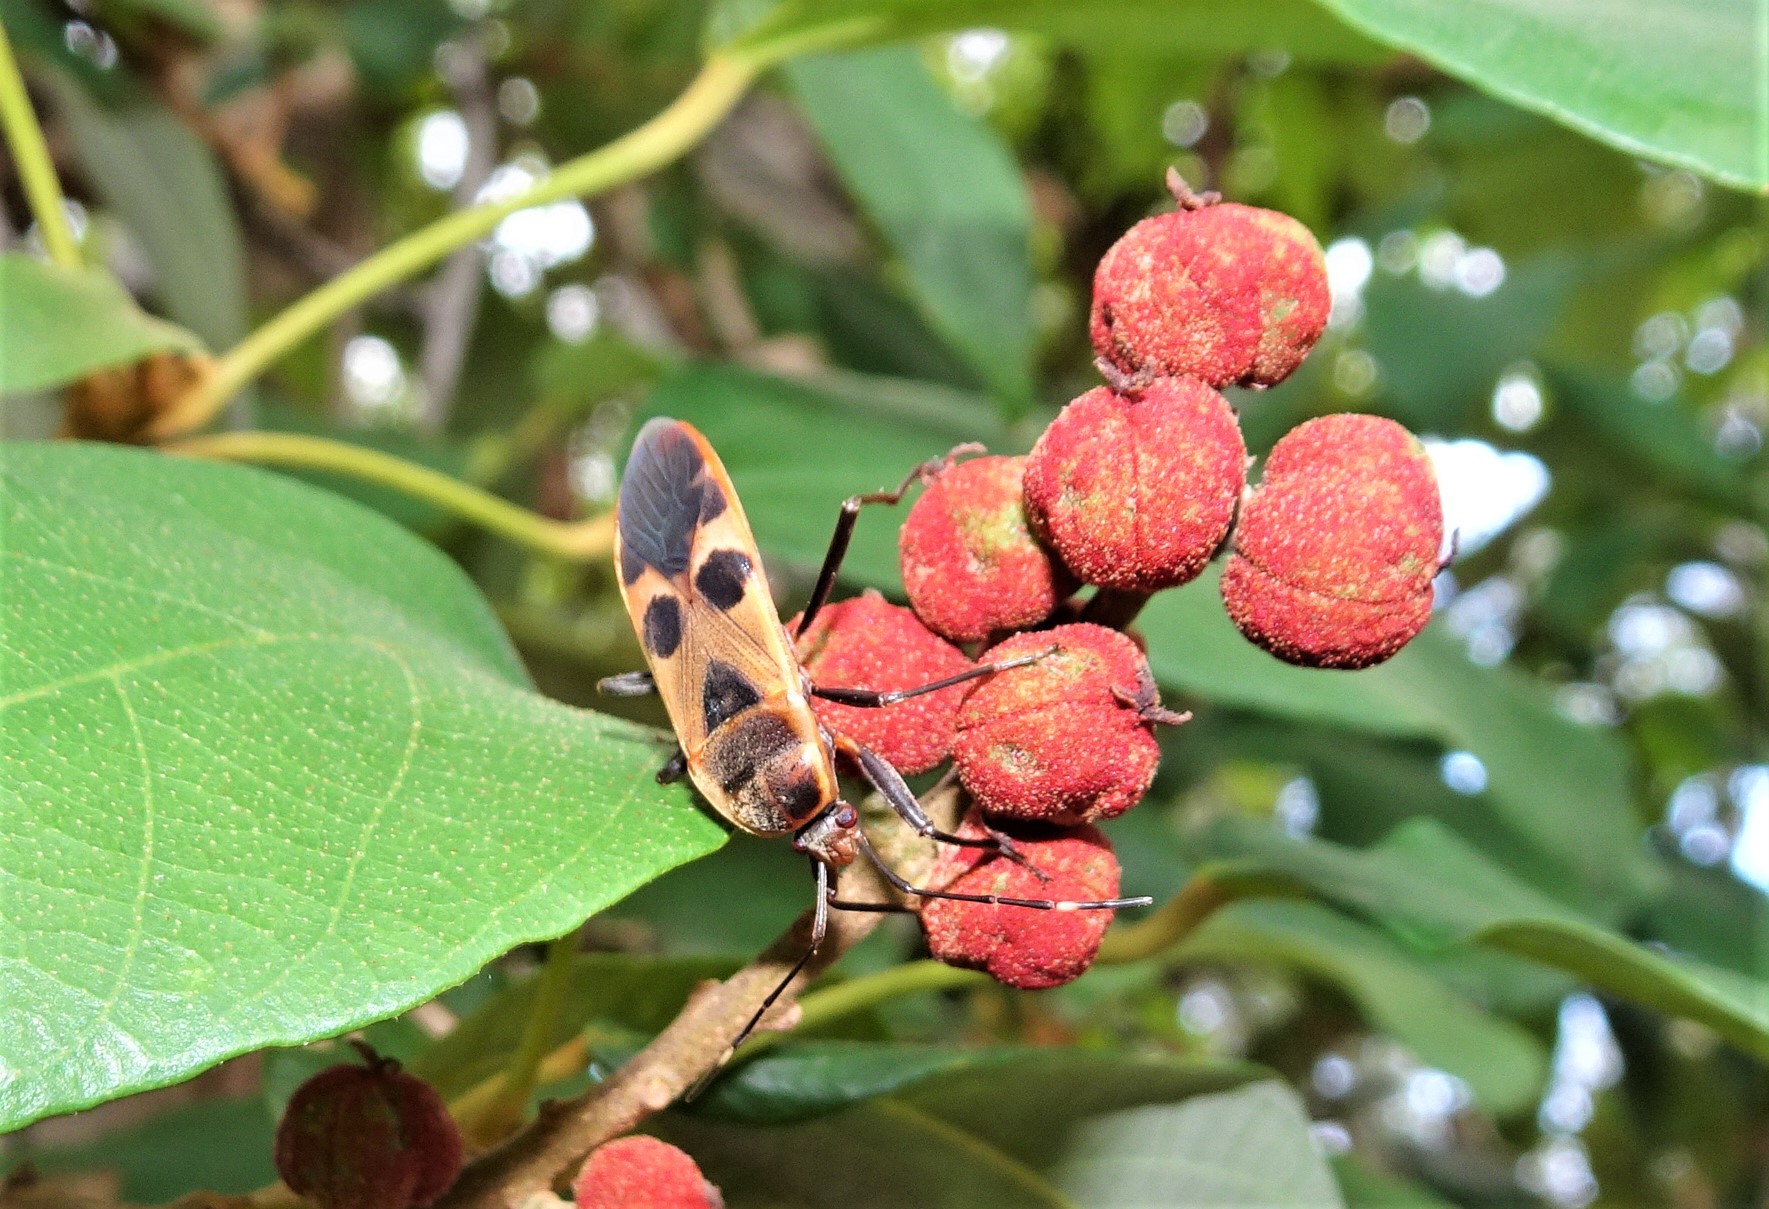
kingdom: Animalia
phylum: Arthropoda
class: Insecta
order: Hemiptera
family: Largidae
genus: Physopelta
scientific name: Physopelta gutta
